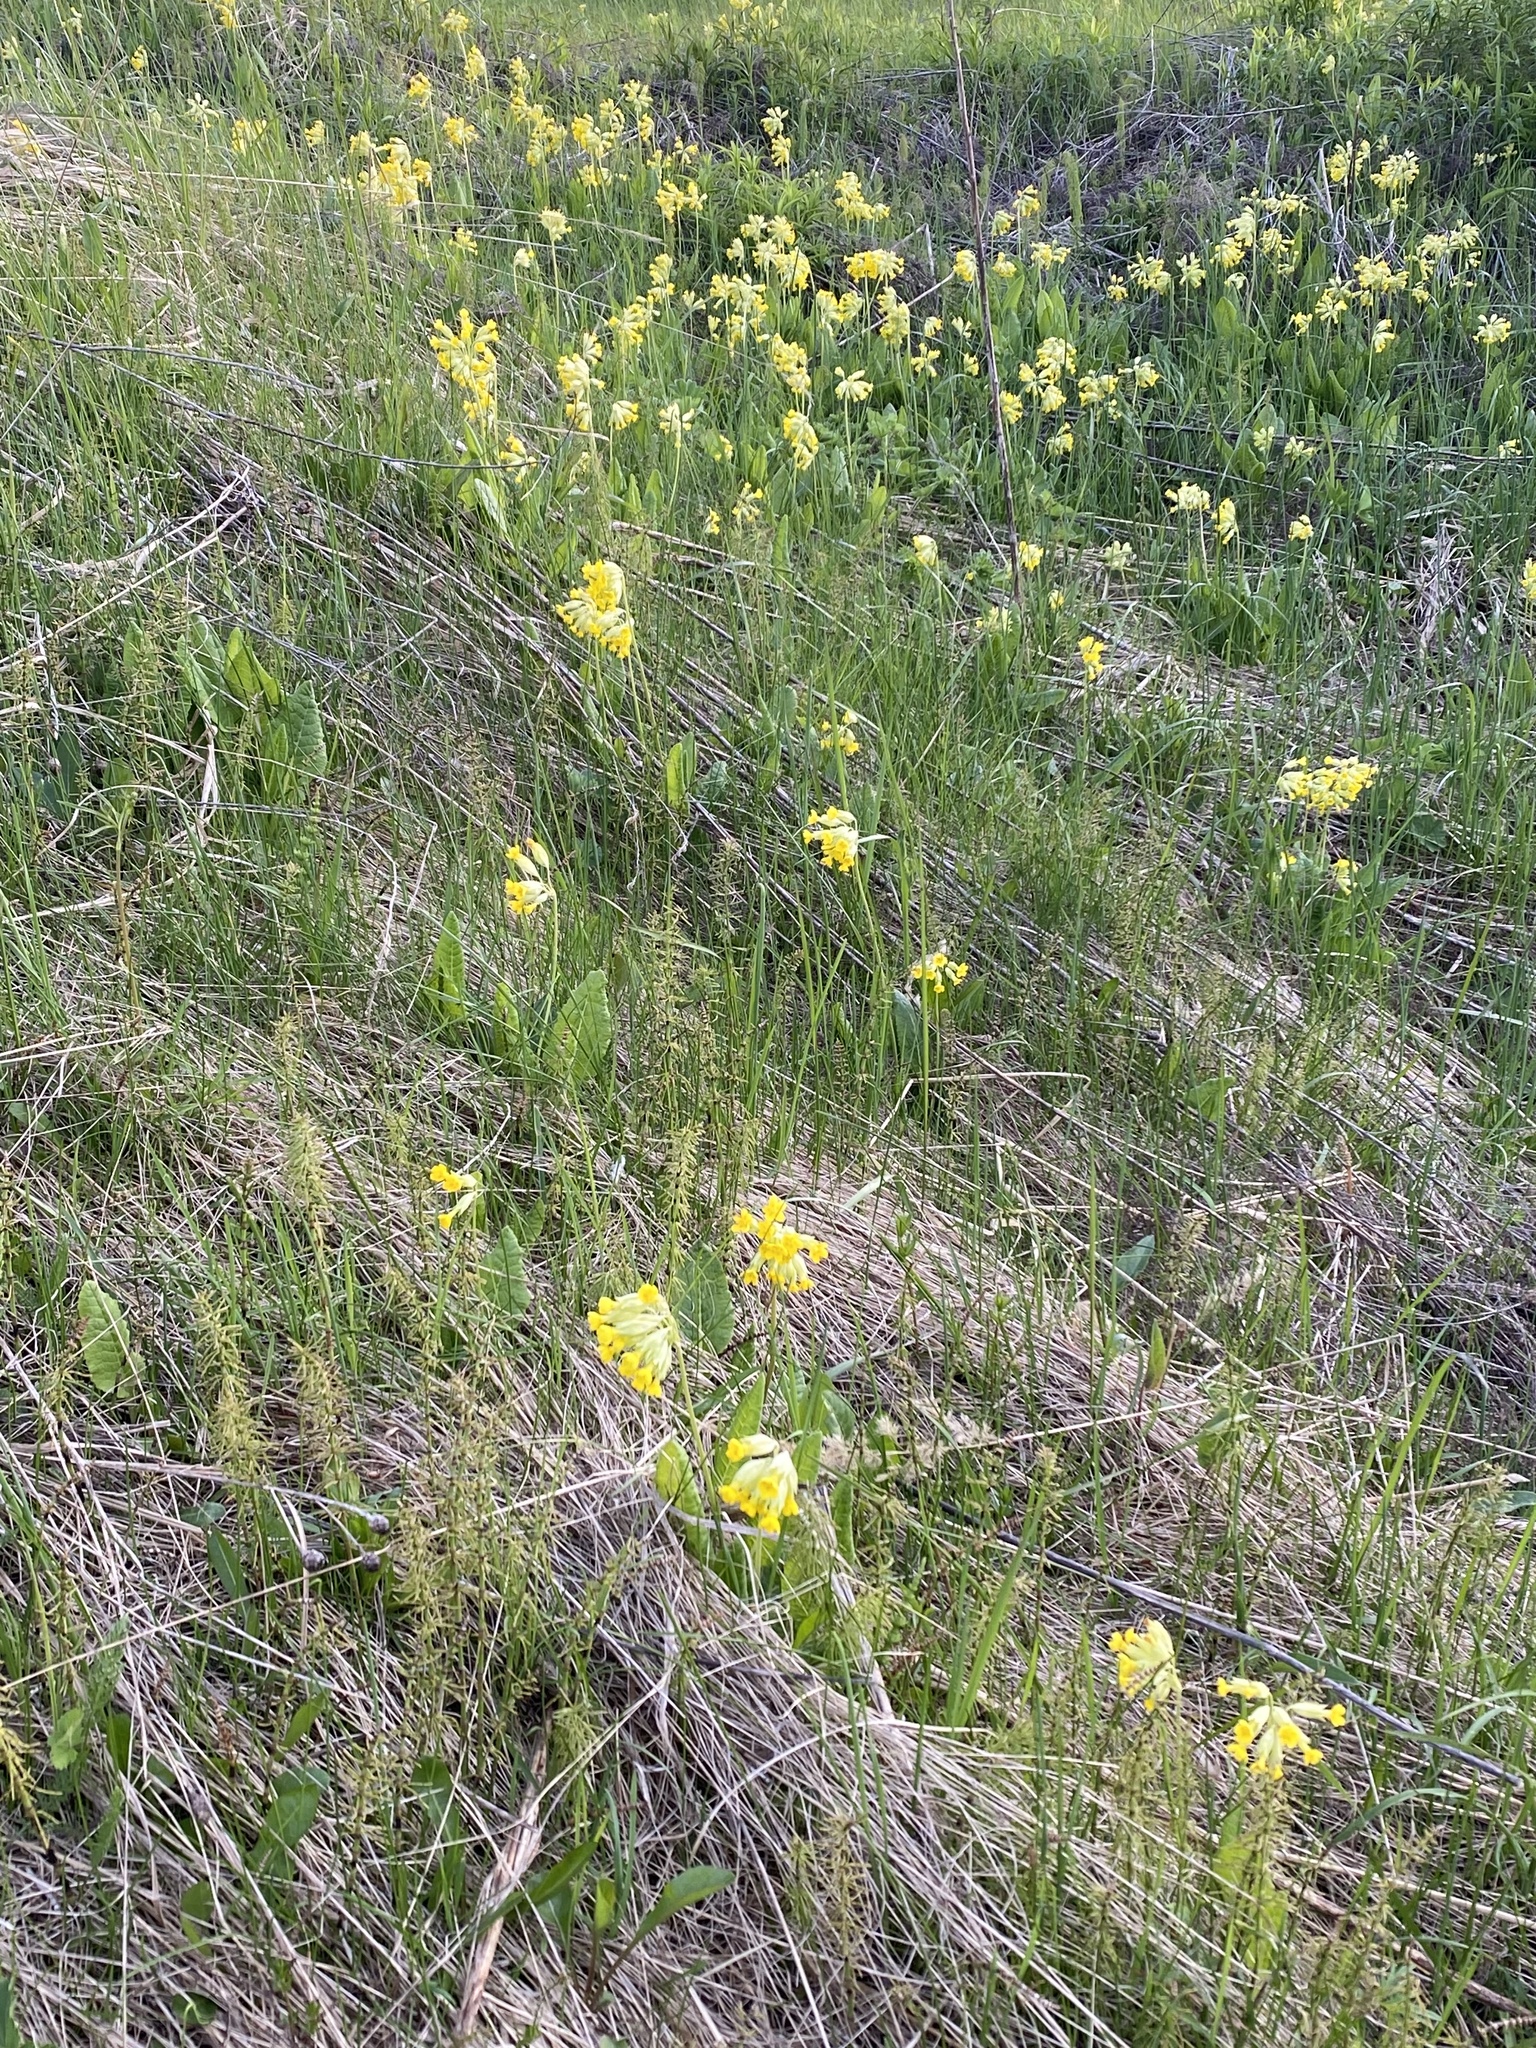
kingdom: Plantae
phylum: Tracheophyta
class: Magnoliopsida
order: Ericales
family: Primulaceae
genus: Primula
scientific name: Primula veris
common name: Cowslip
